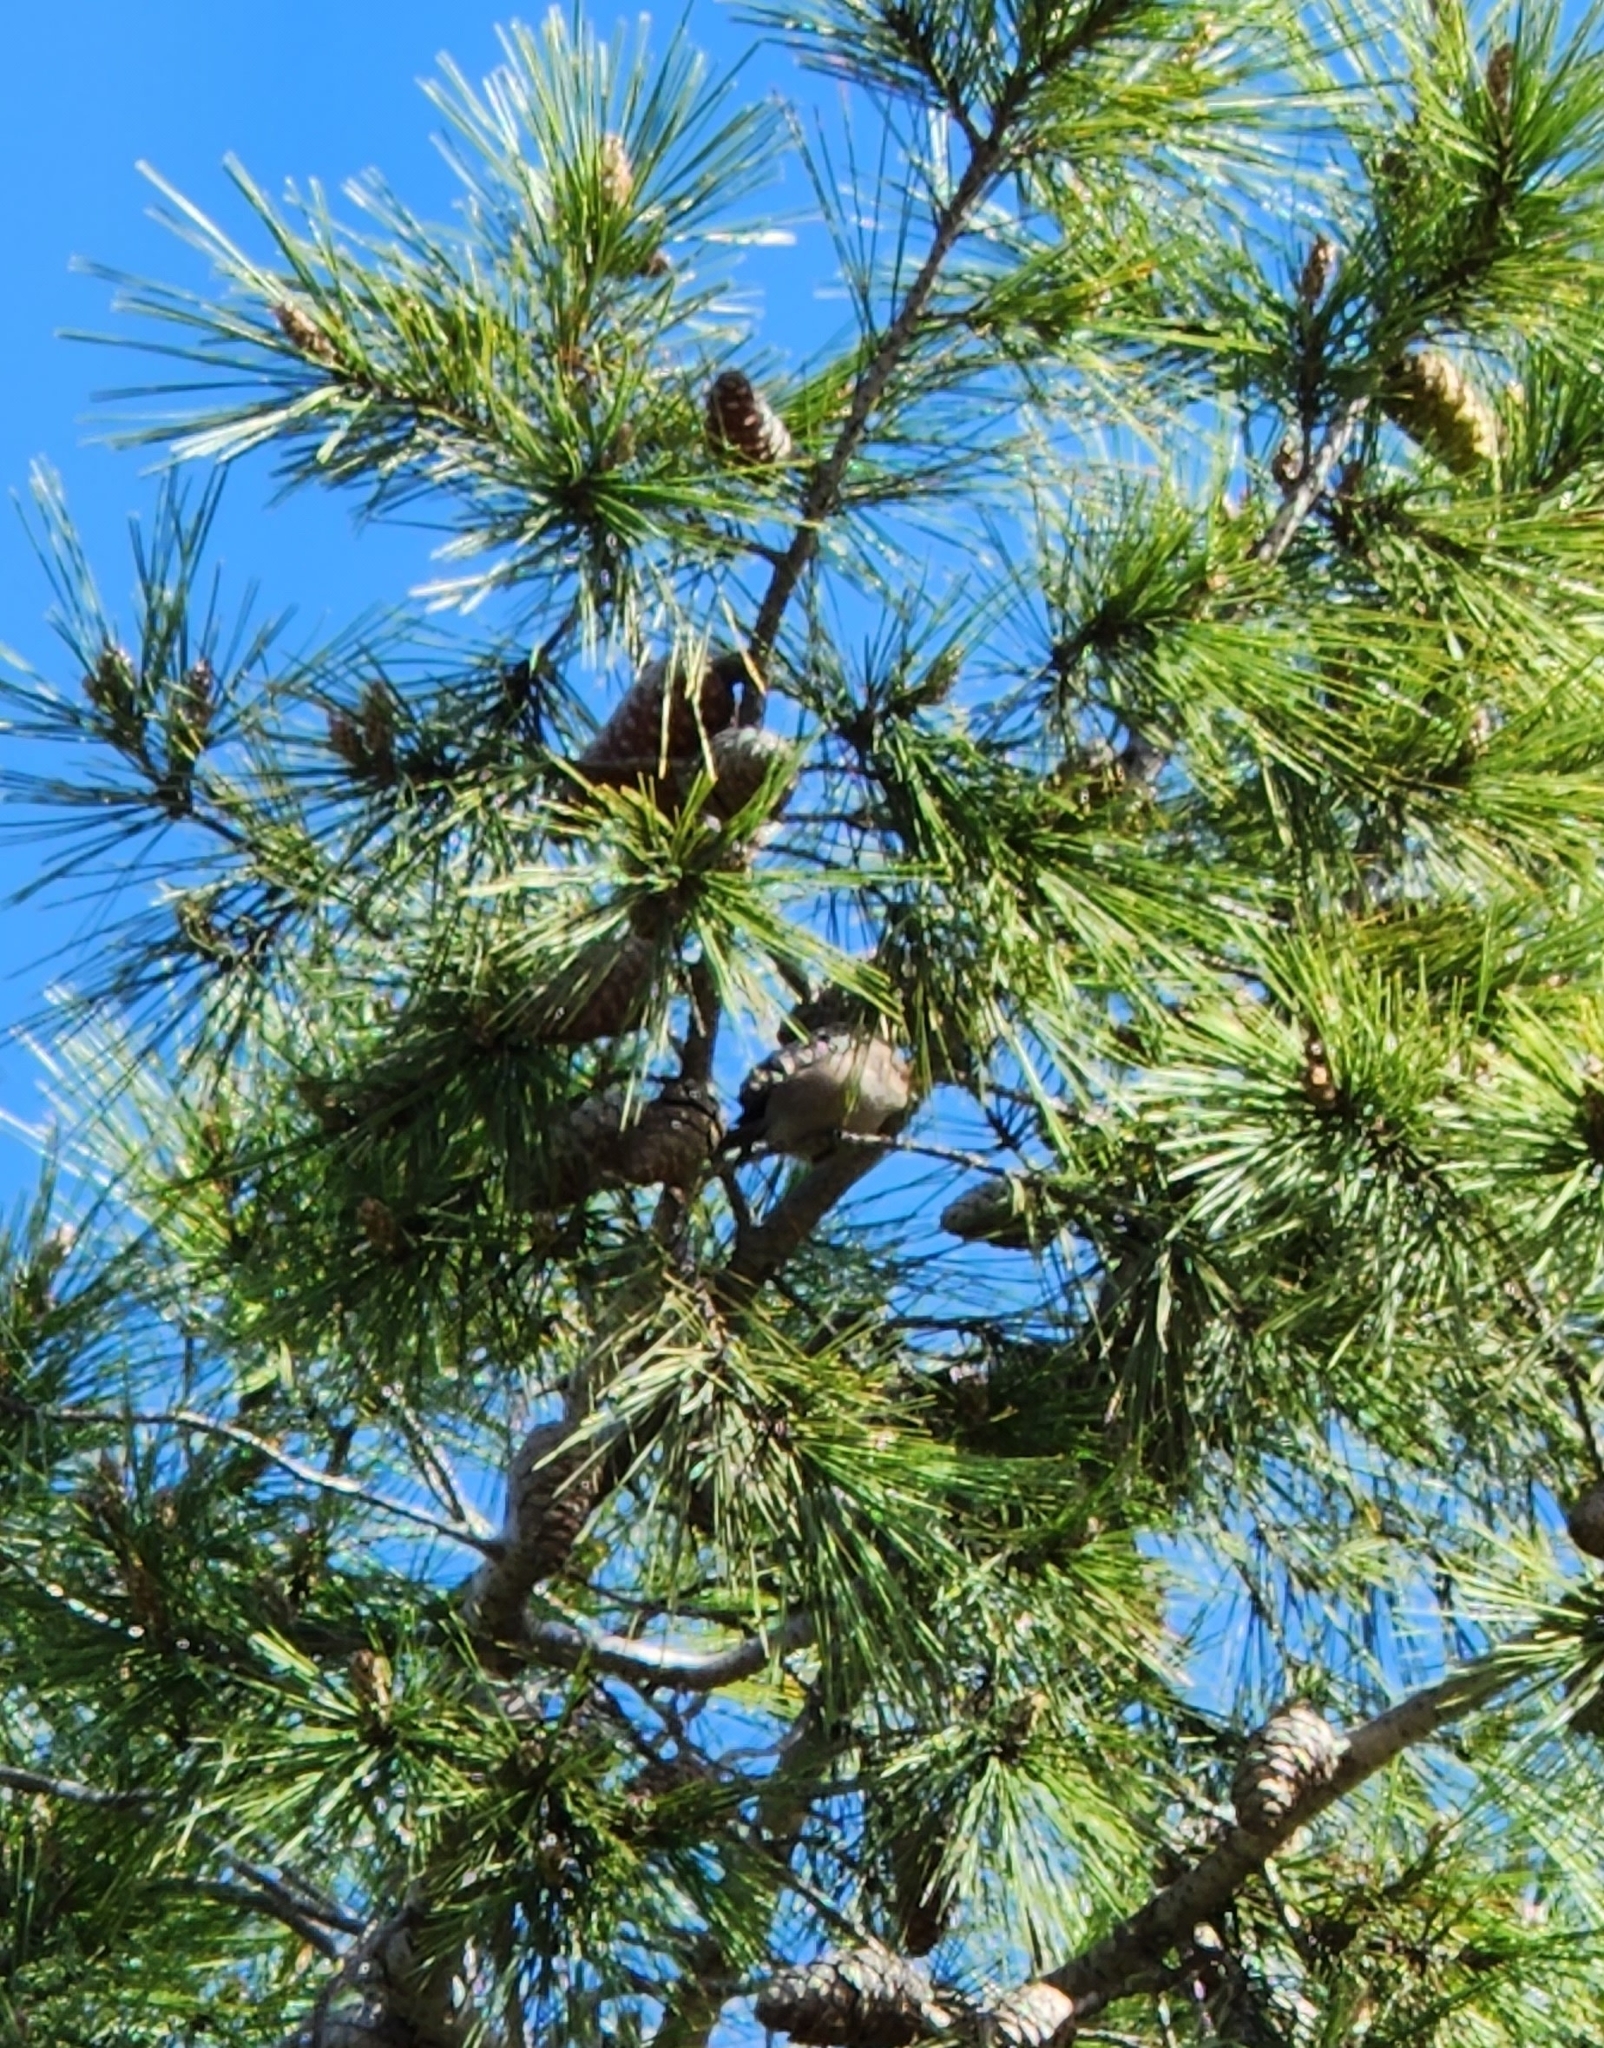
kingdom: Animalia
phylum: Chordata
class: Aves
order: Passeriformes
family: Aegithalidae
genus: Psaltriparus
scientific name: Psaltriparus minimus
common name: American bushtit
